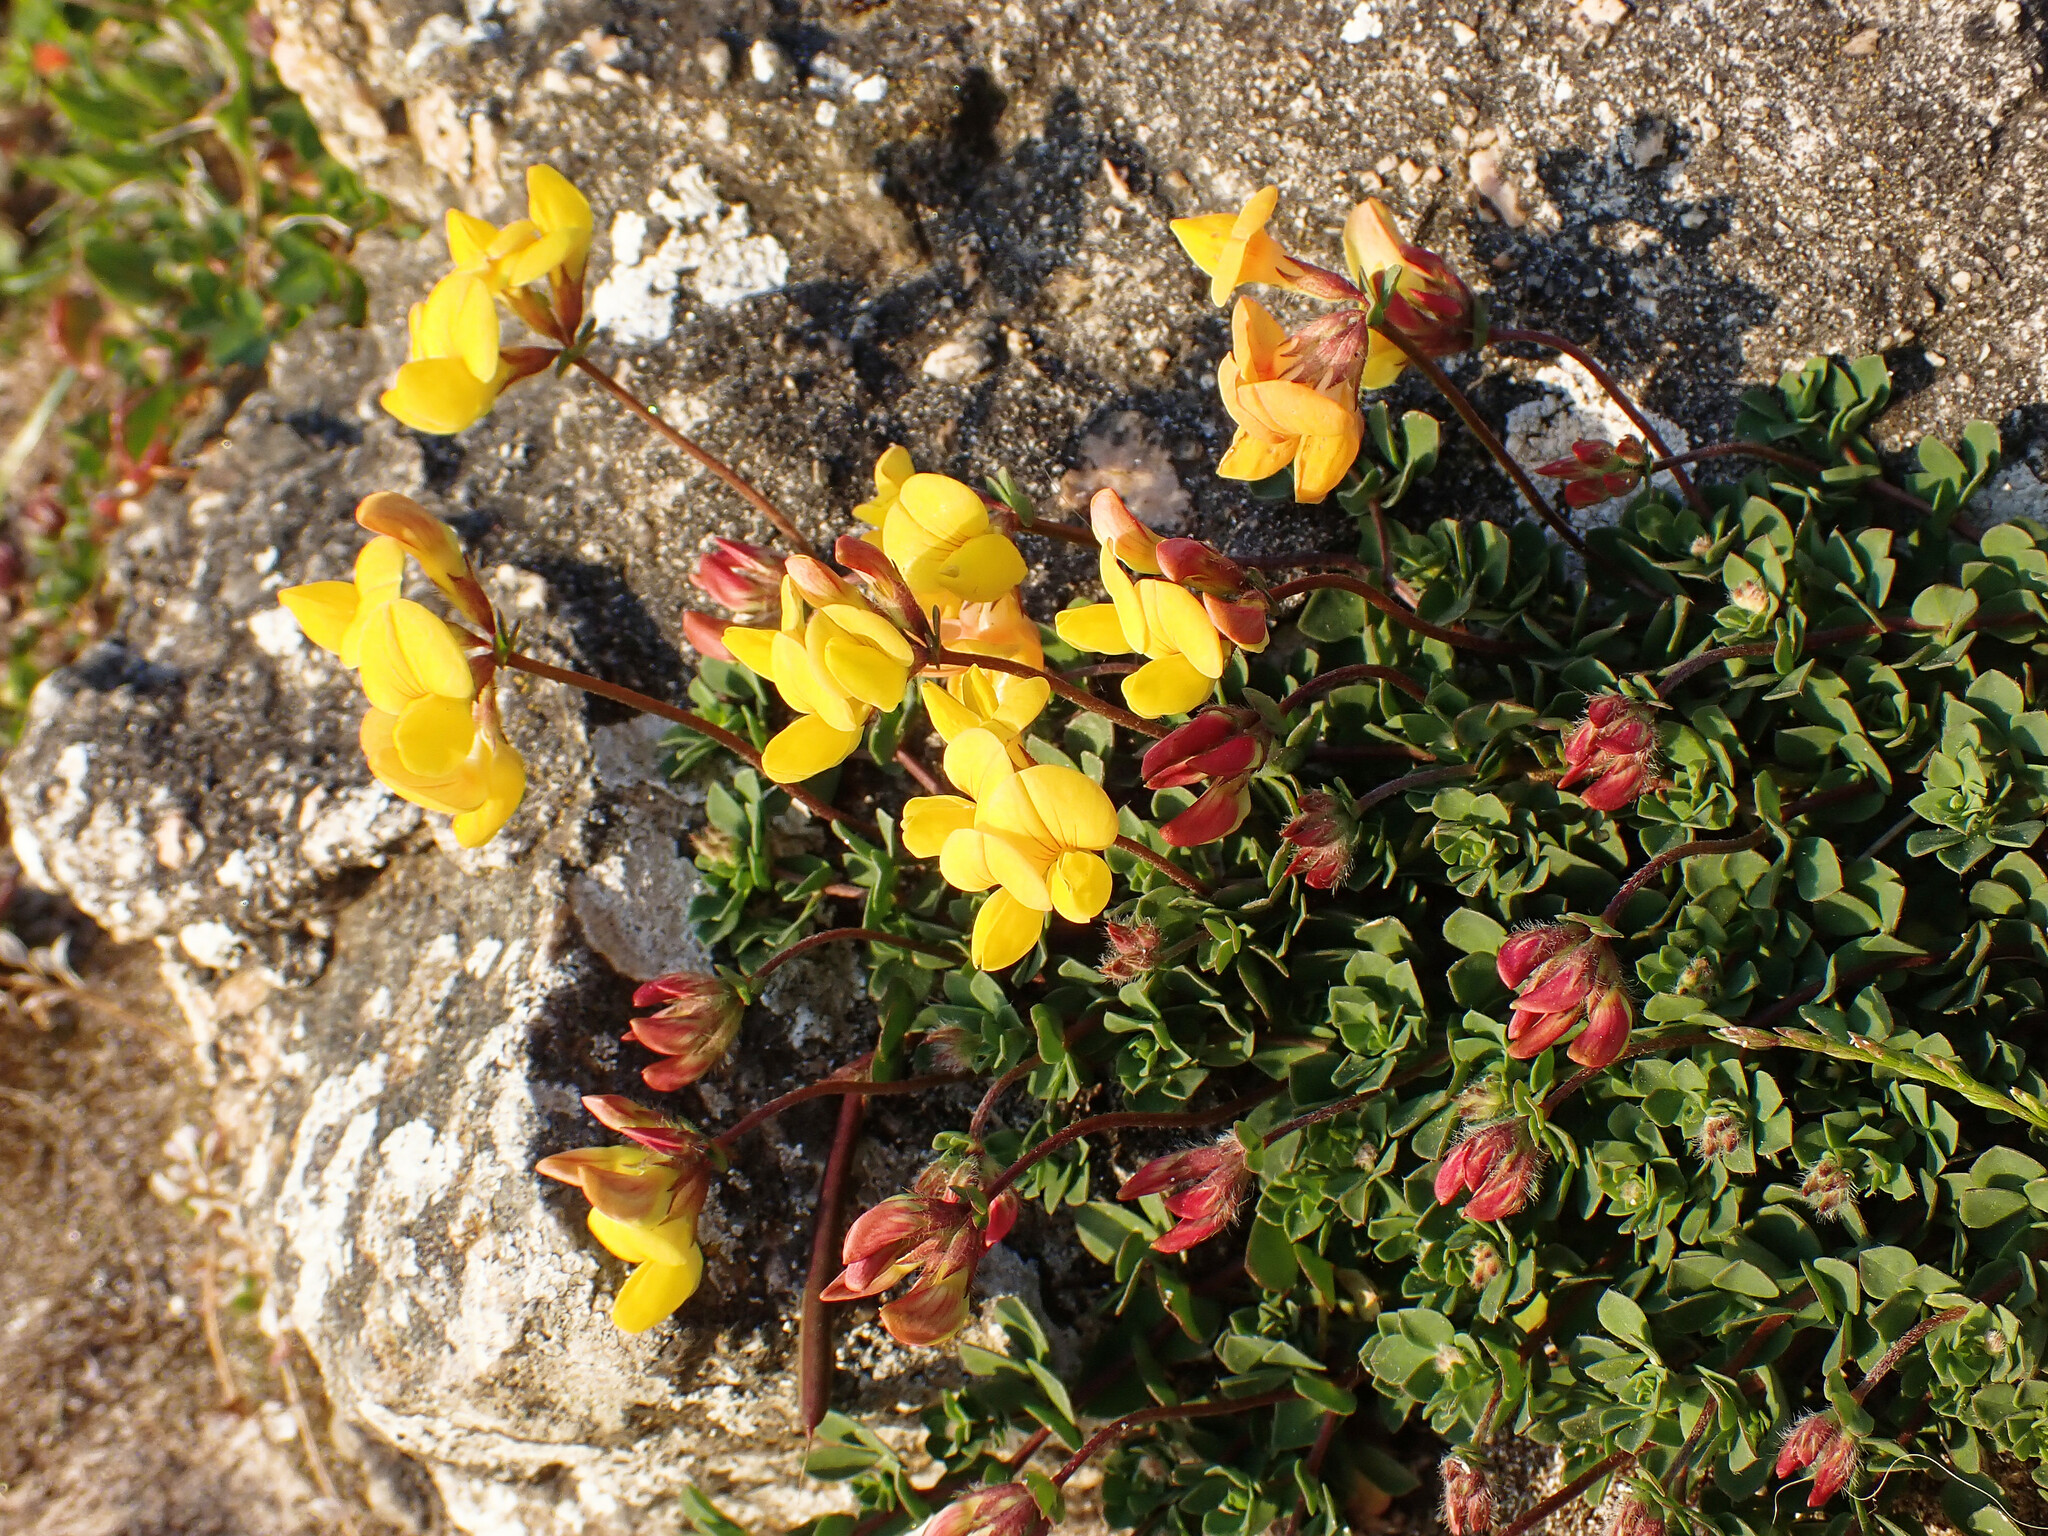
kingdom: Plantae
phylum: Tracheophyta
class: Magnoliopsida
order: Fabales
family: Fabaceae
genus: Lotus
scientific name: Lotus corniculatus
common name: Common bird's-foot-trefoil
